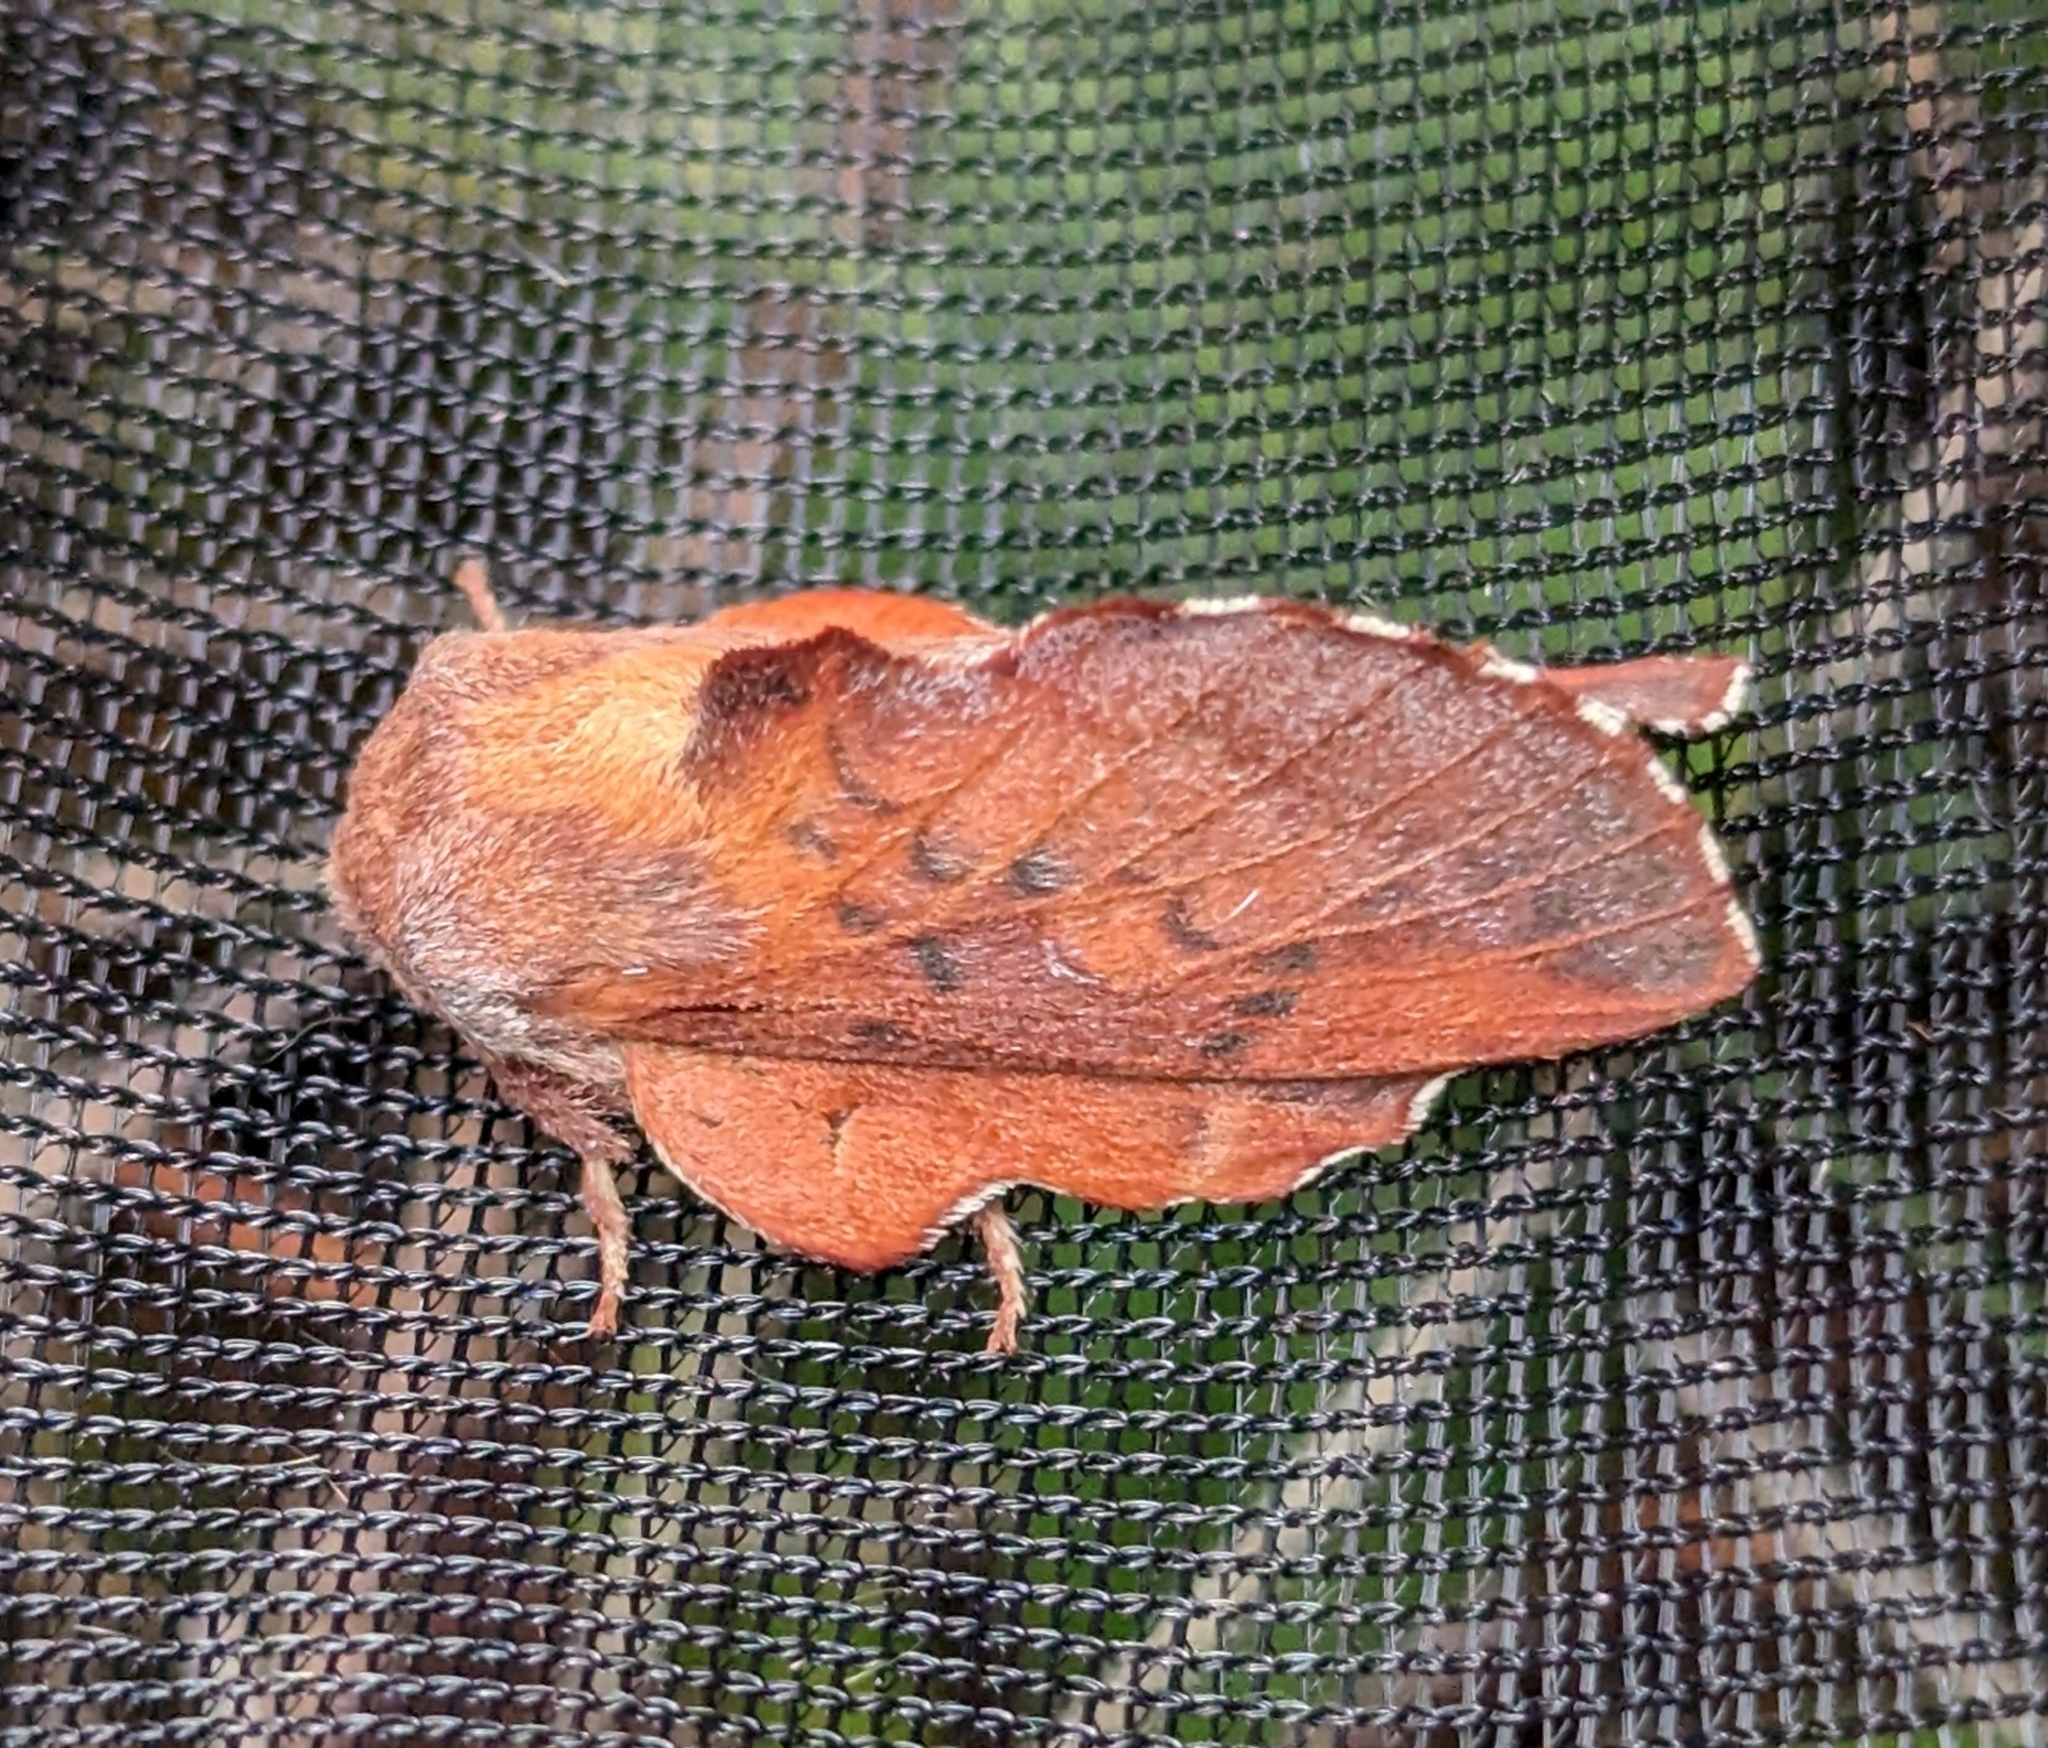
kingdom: Animalia
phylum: Arthropoda
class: Insecta
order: Lepidoptera
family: Lasiocampidae
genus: Phyllodesma
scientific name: Phyllodesma americana
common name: American lappet moth
